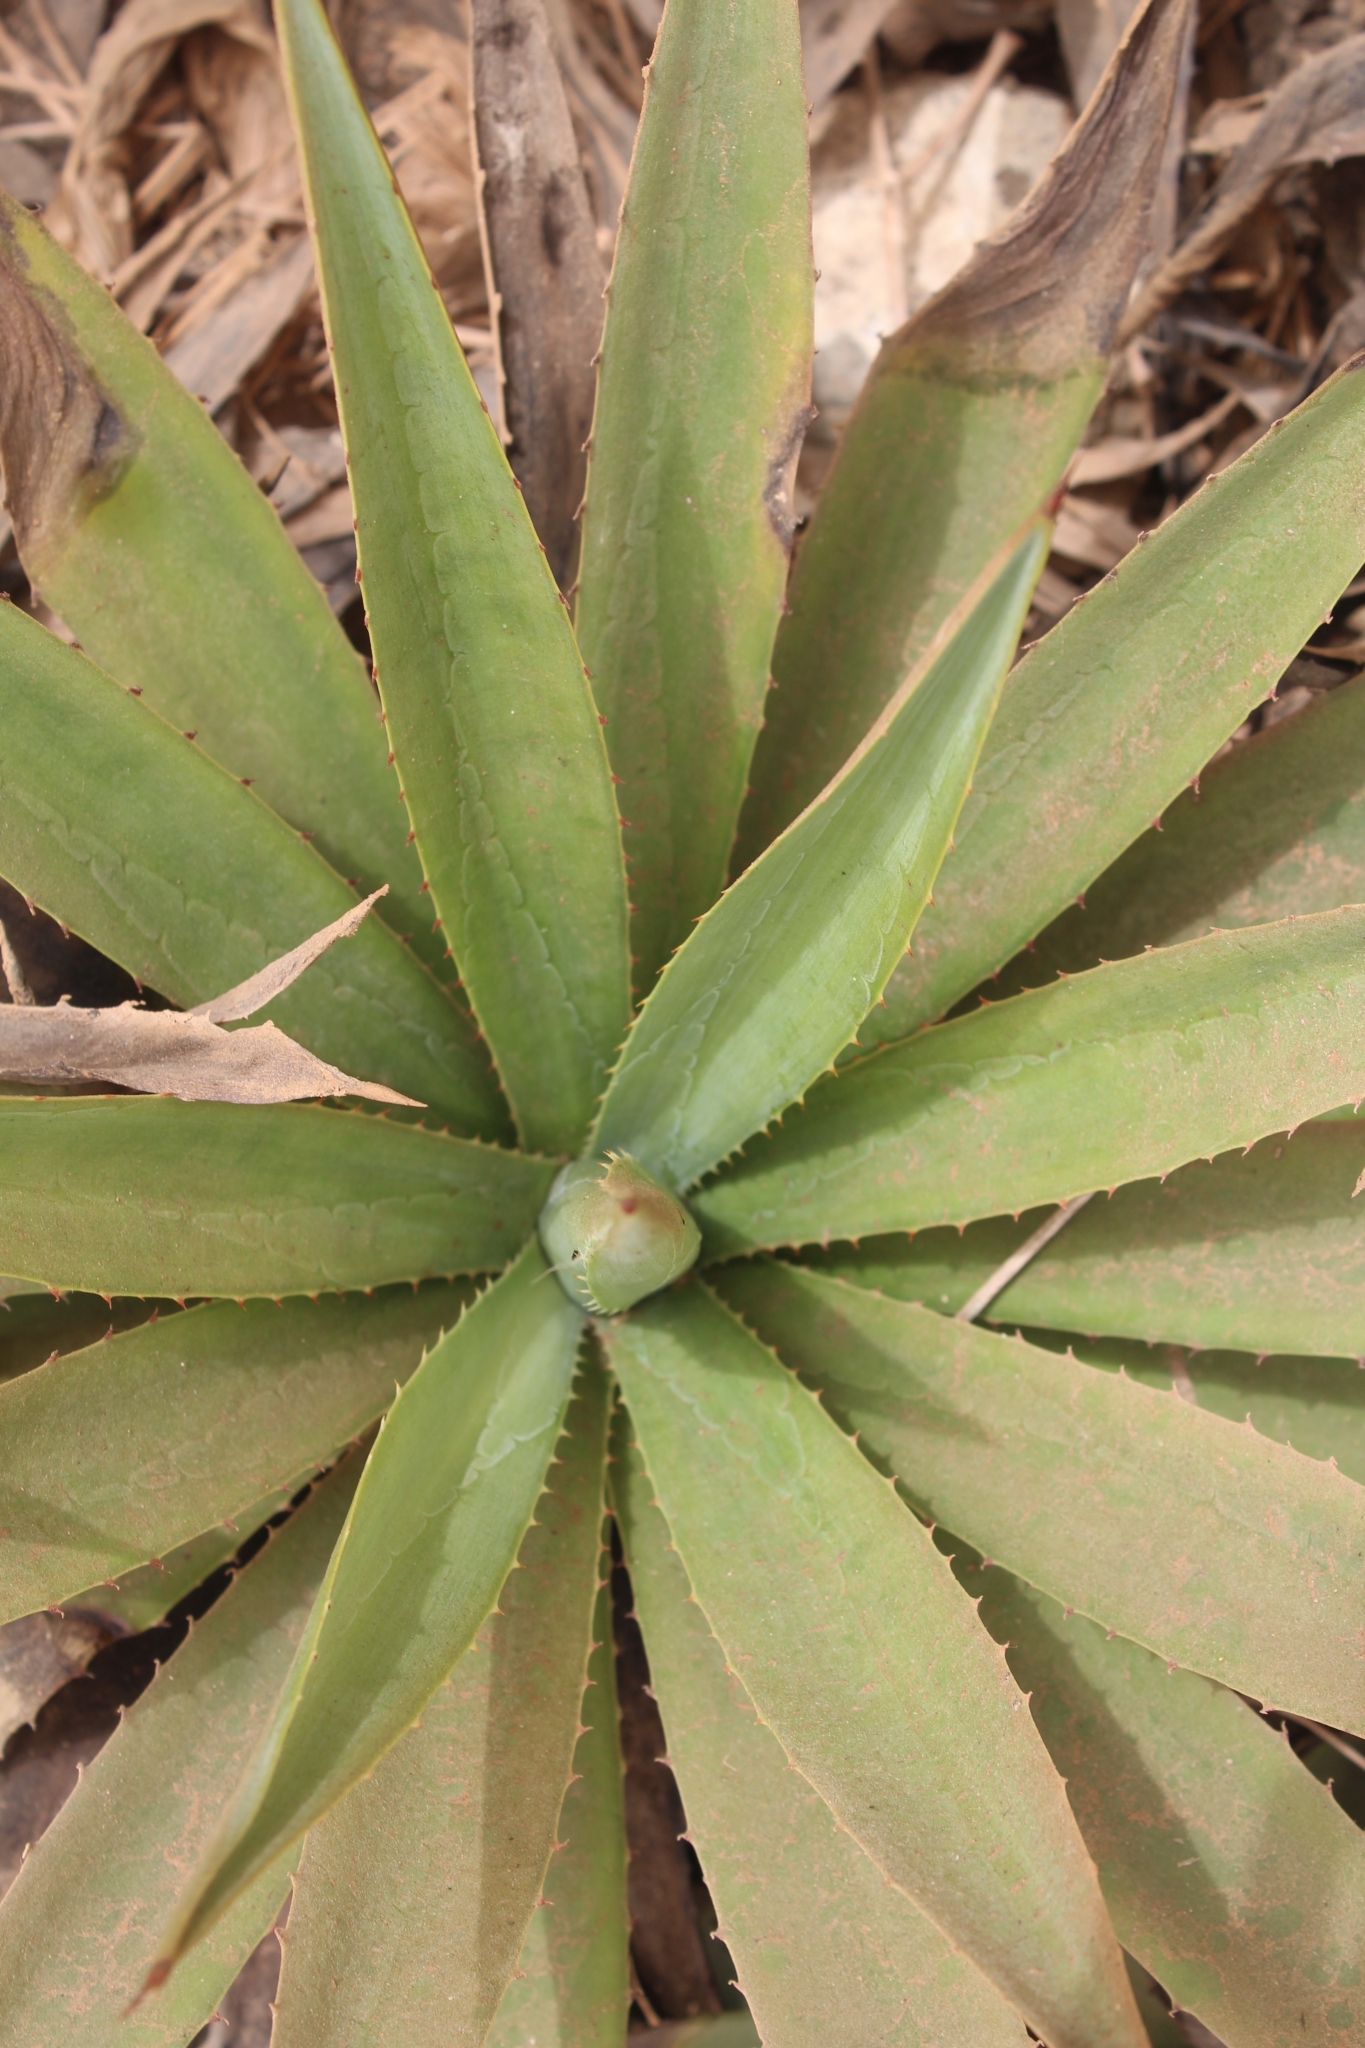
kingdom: Plantae
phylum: Tracheophyta
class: Liliopsida
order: Asparagales
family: Asparagaceae
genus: Agave
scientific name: Agave angustifolia
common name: Mescal agave
